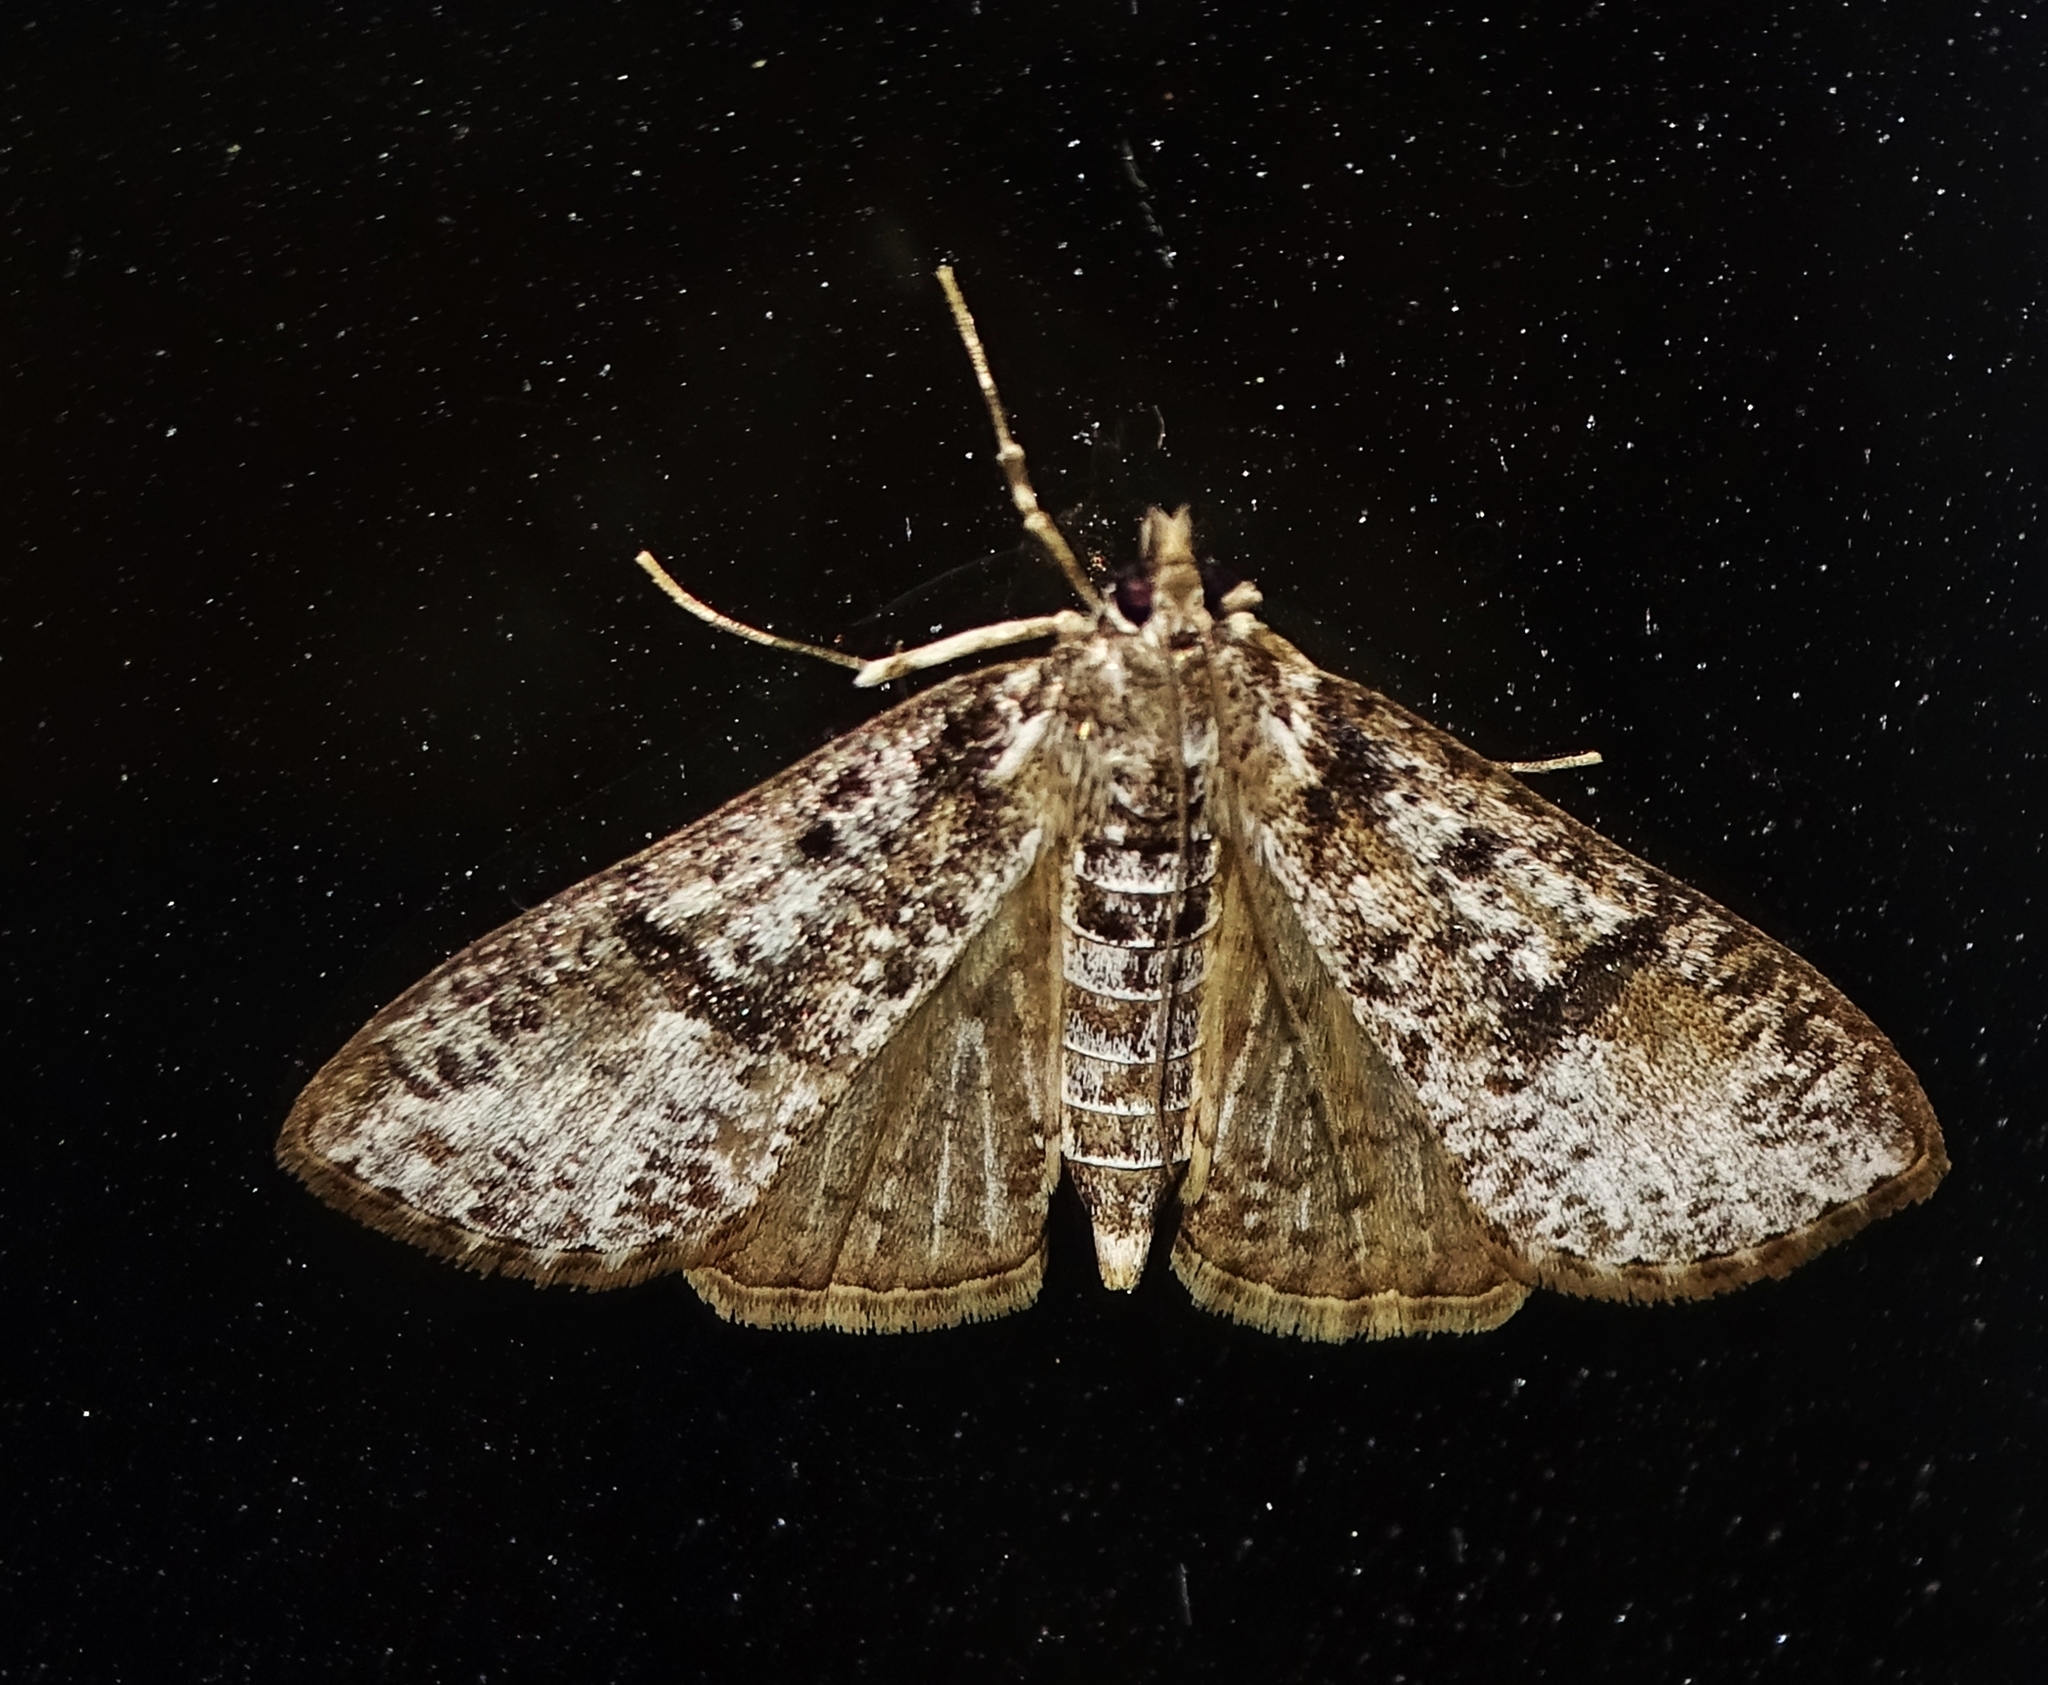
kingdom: Animalia
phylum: Arthropoda
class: Insecta
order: Lepidoptera
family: Crambidae
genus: Palpita
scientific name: Palpita magniferalis
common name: Splendid palpita moth
